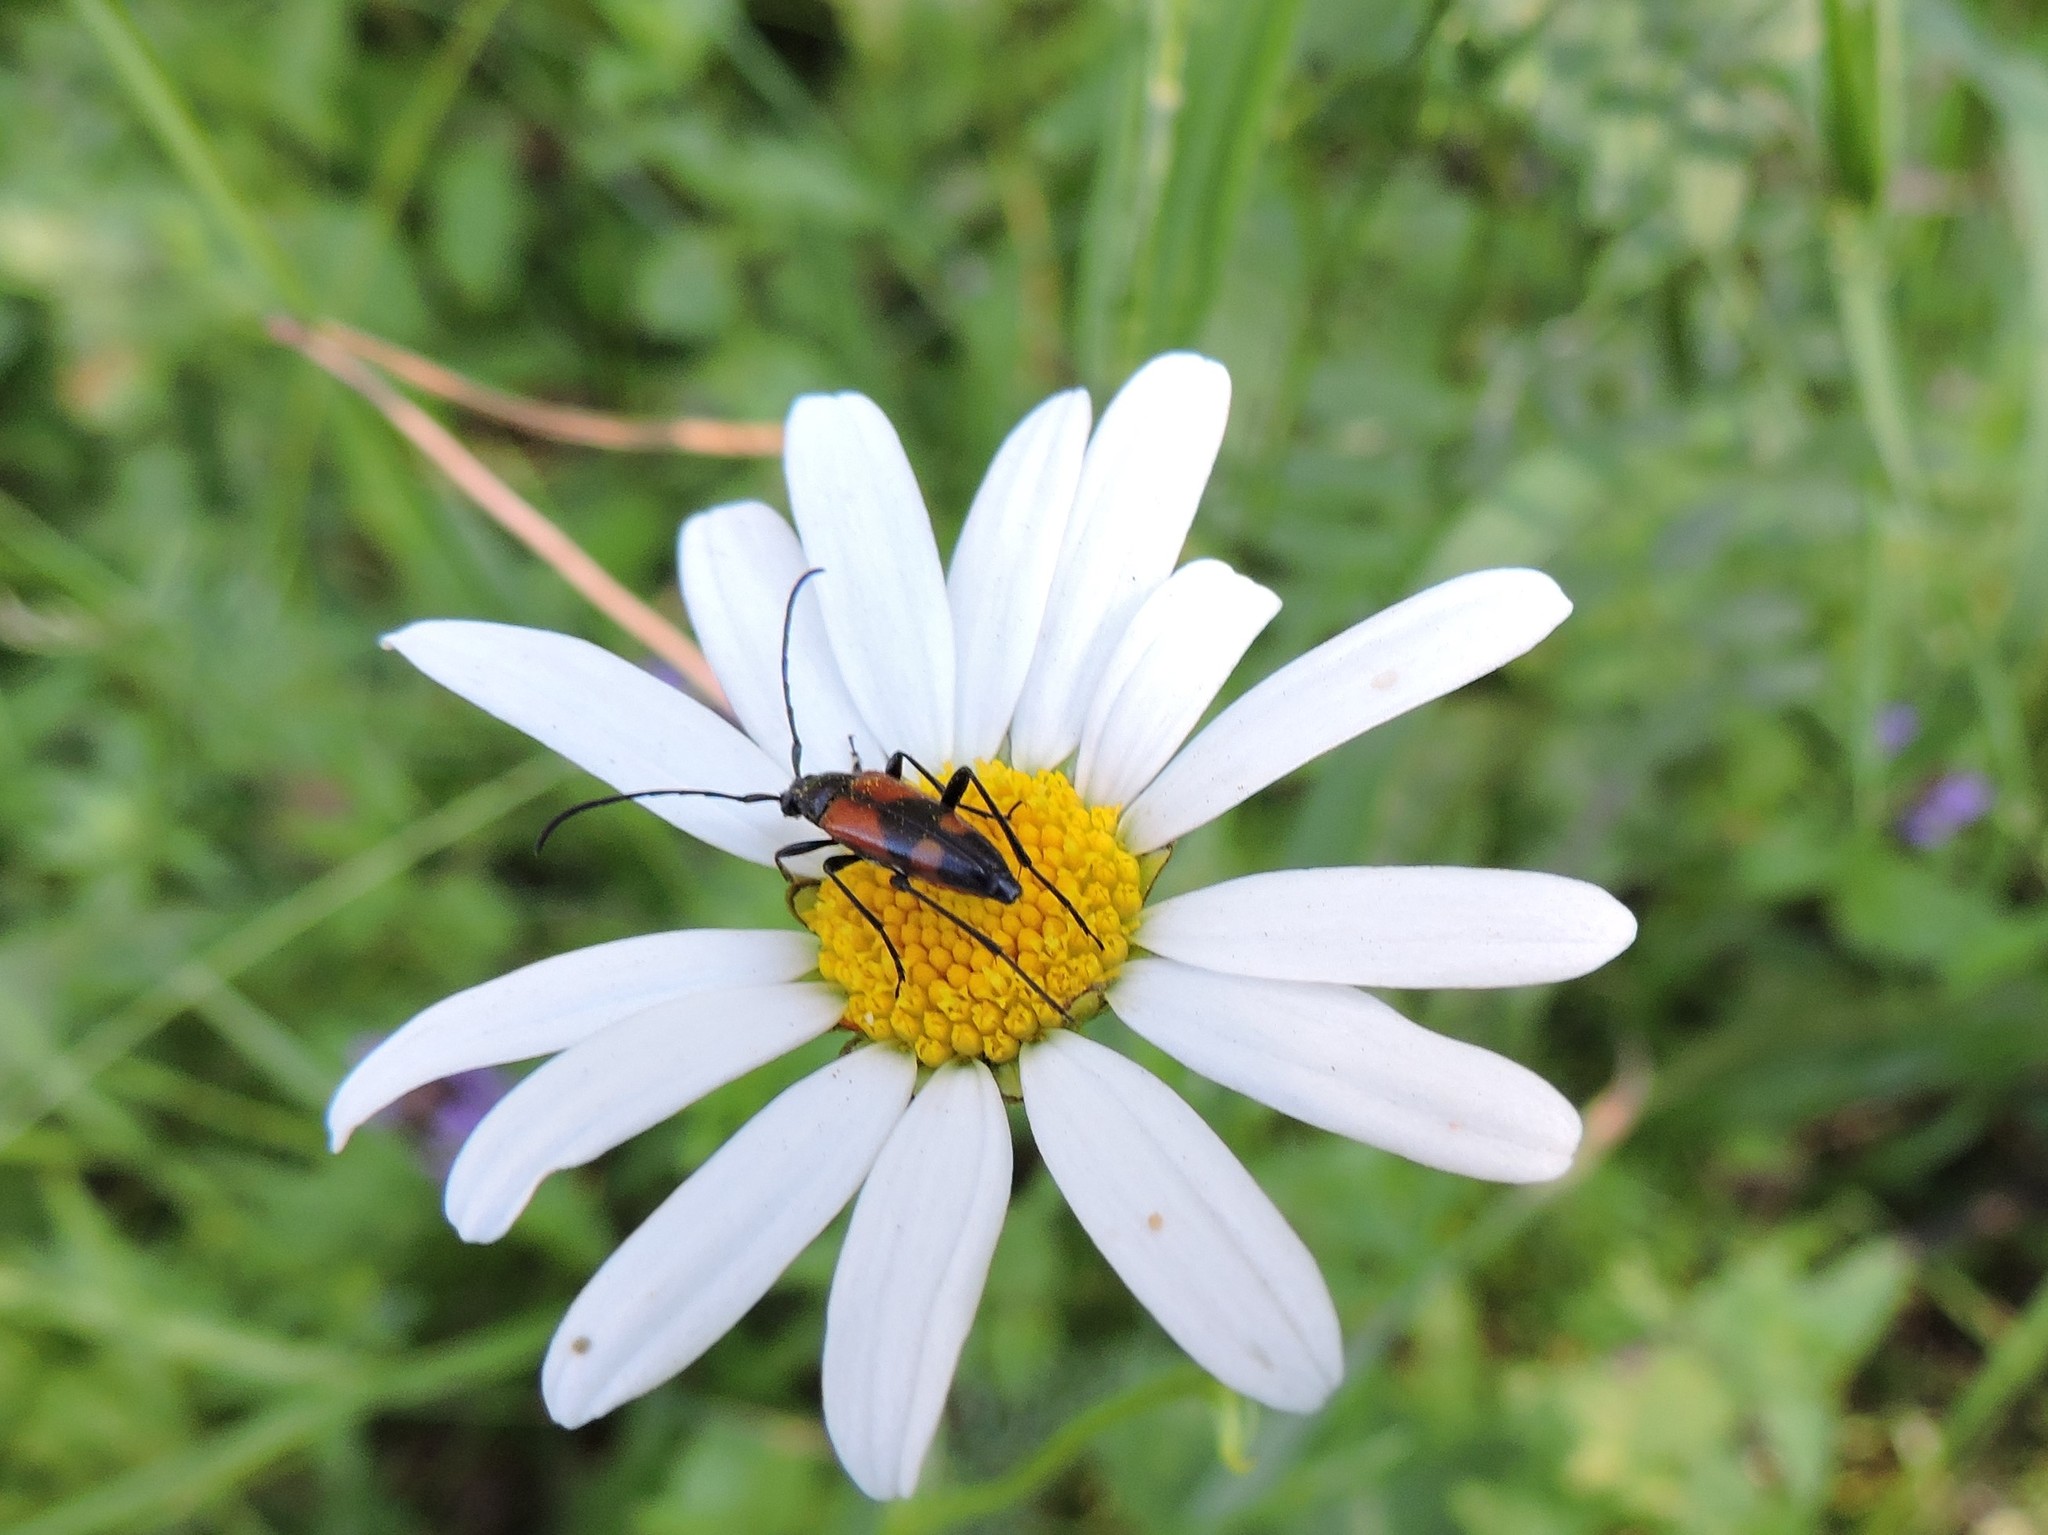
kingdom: Animalia
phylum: Arthropoda
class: Insecta
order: Coleoptera
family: Cerambycidae
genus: Stenurella
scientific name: Stenurella bifasciata
